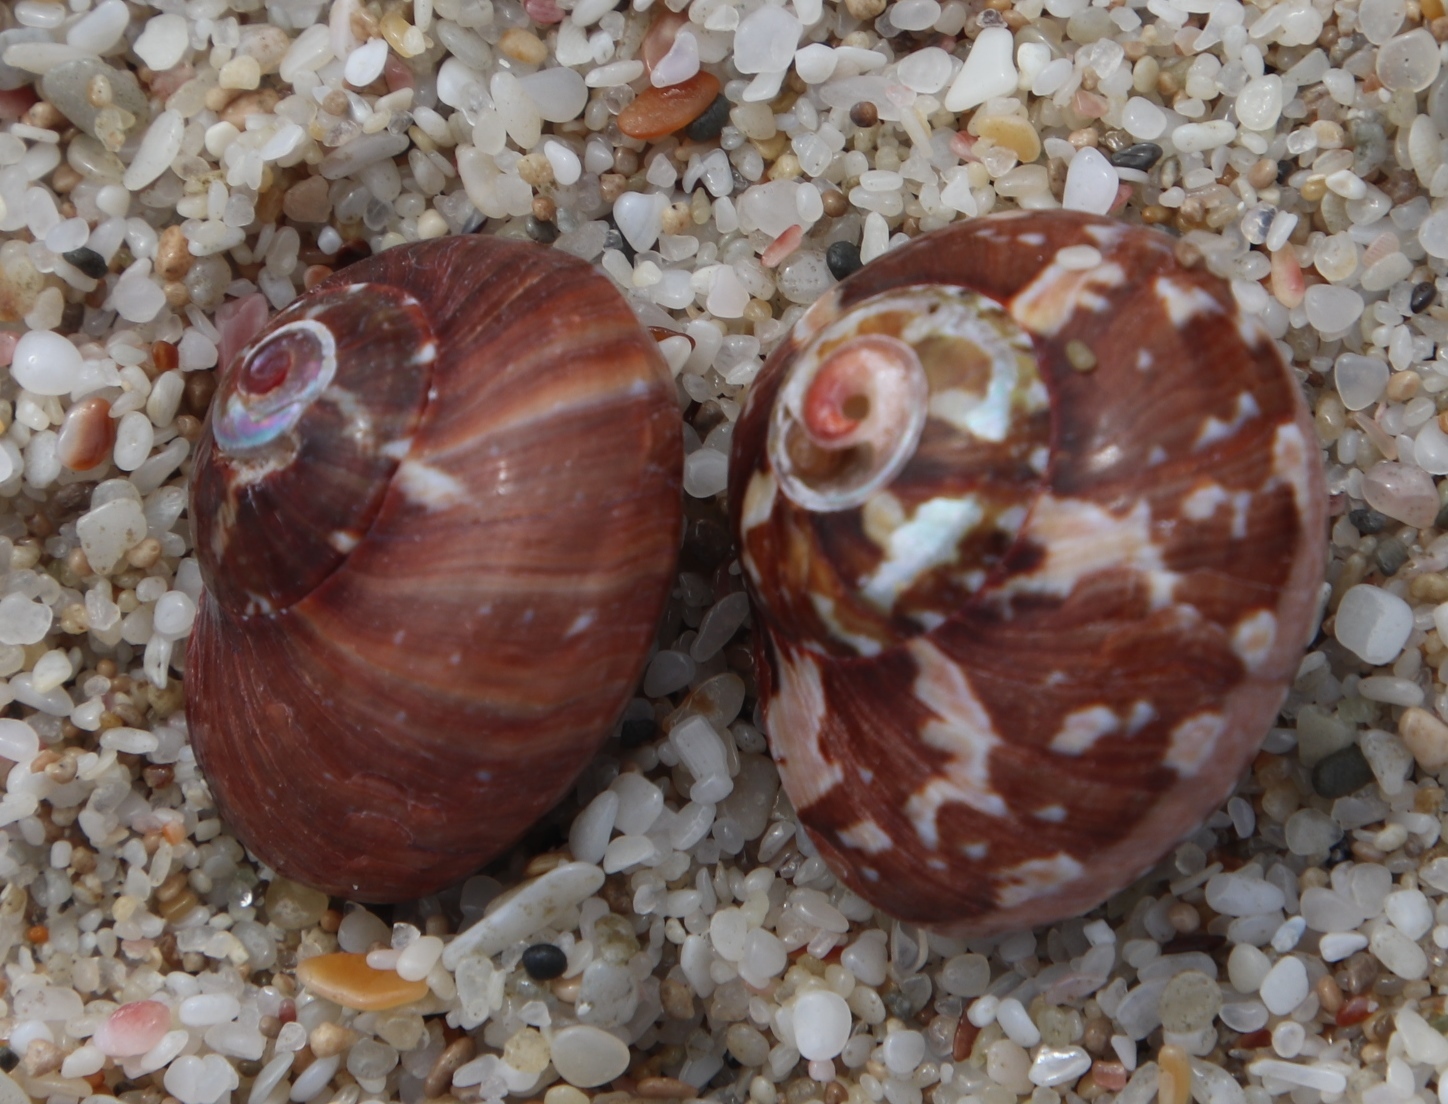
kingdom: Animalia
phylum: Mollusca
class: Gastropoda
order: Trochida
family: Turbinidae
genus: Turbo
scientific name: Turbo cidaris
